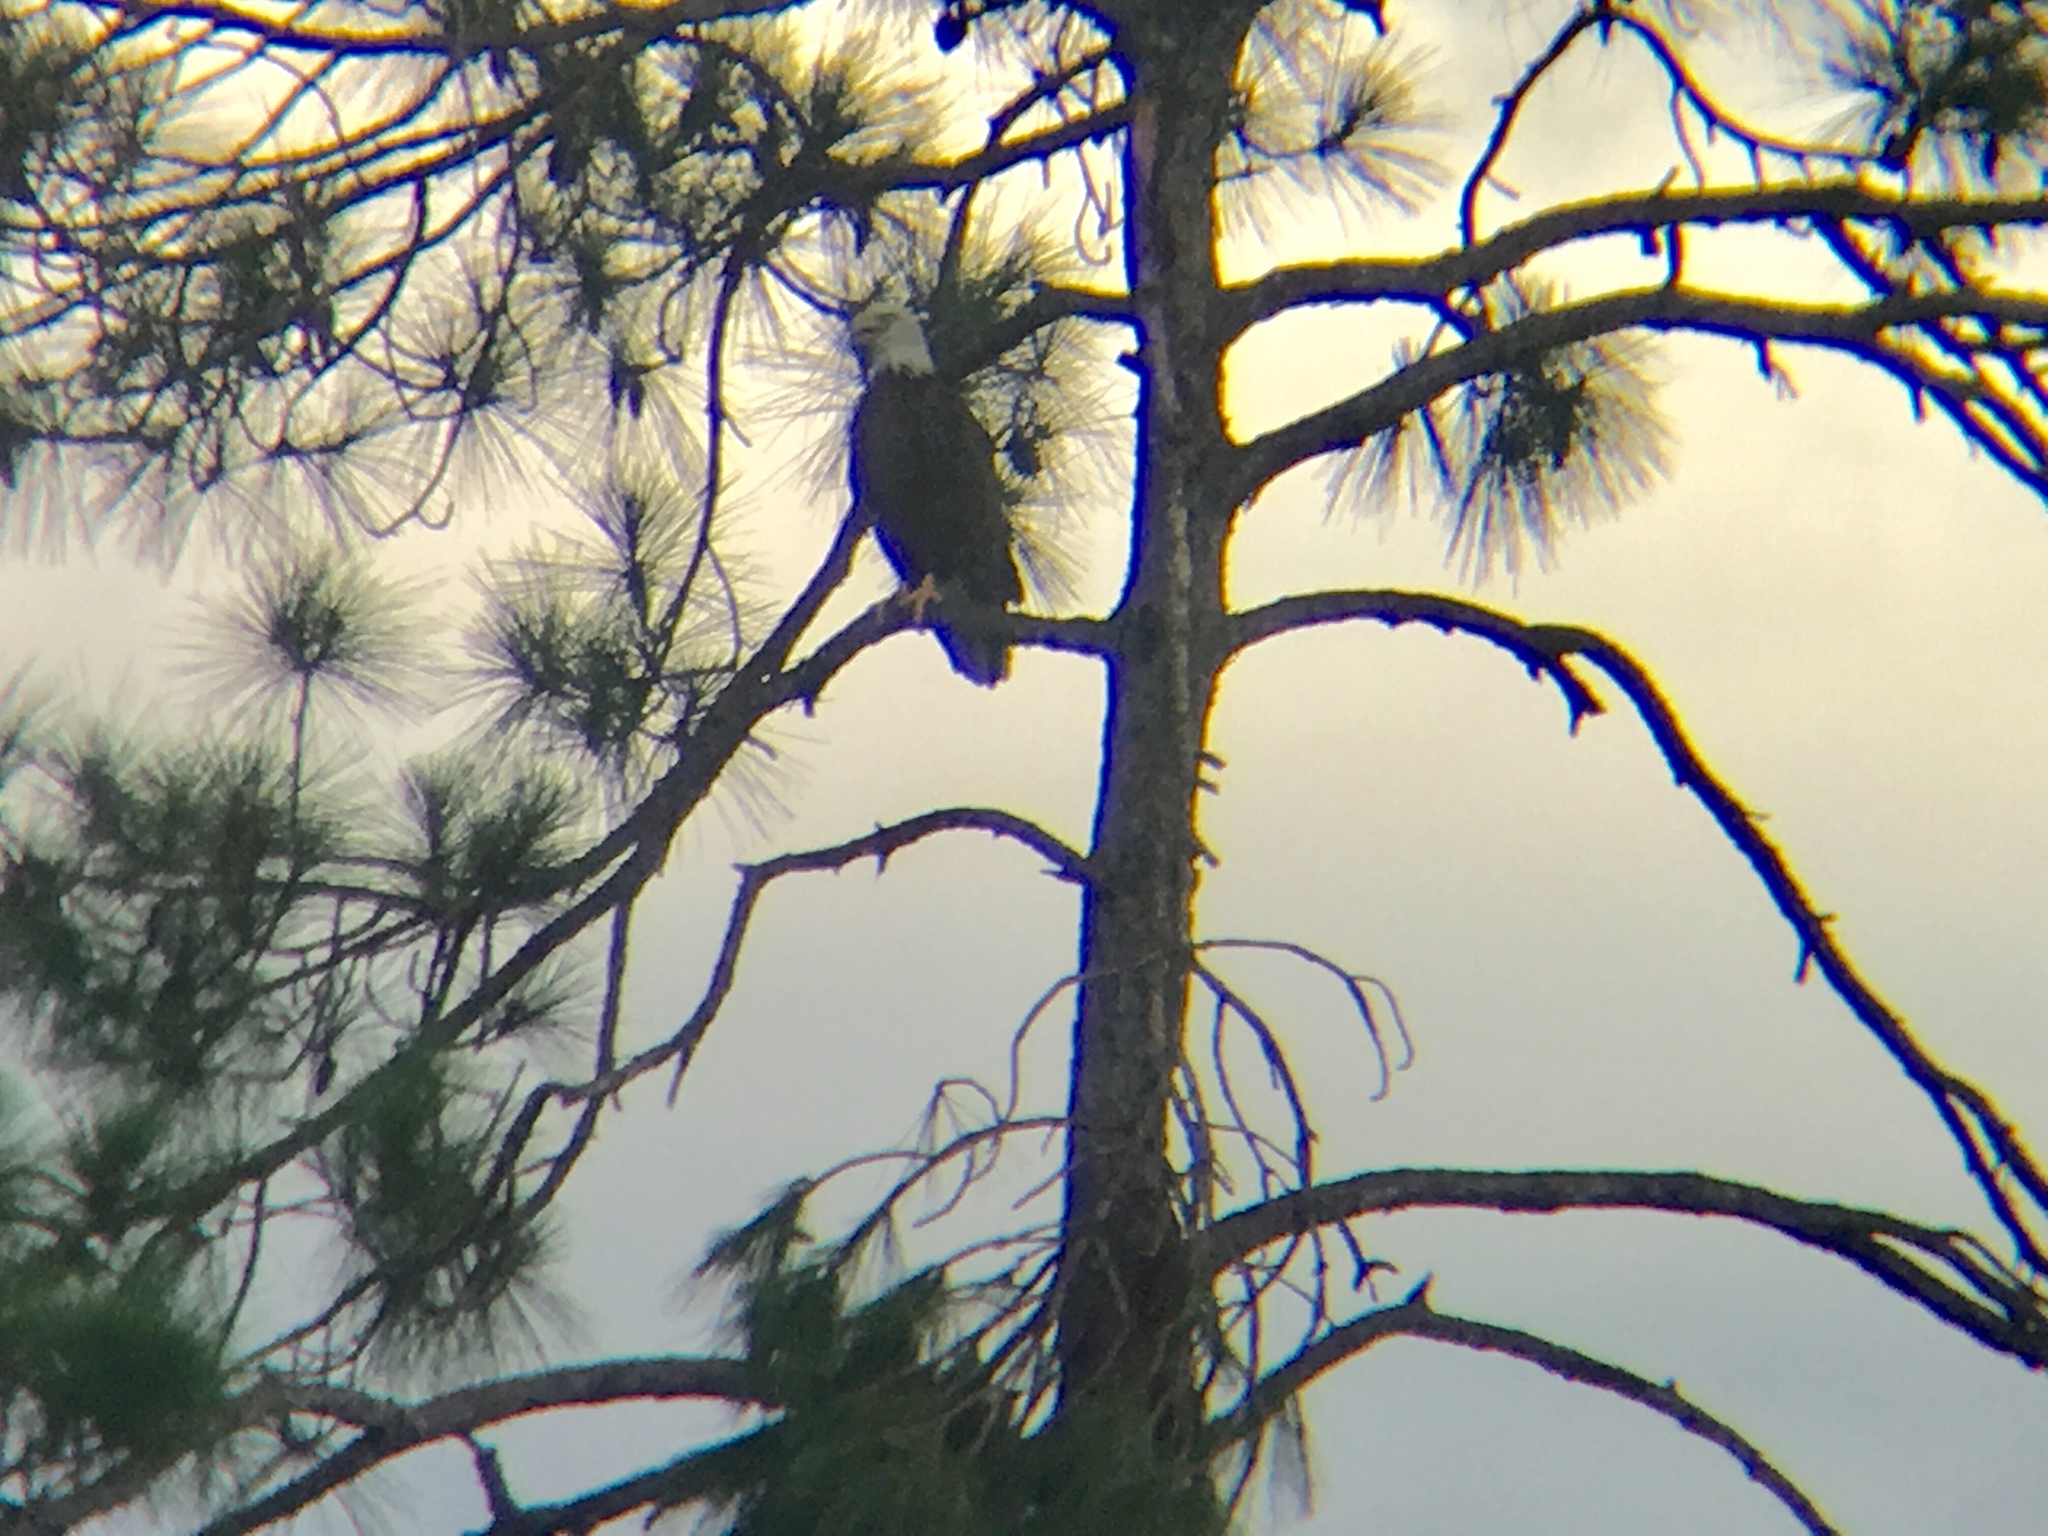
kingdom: Animalia
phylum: Chordata
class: Aves
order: Accipitriformes
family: Accipitridae
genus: Haliaeetus
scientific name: Haliaeetus leucocephalus
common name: Bald eagle
